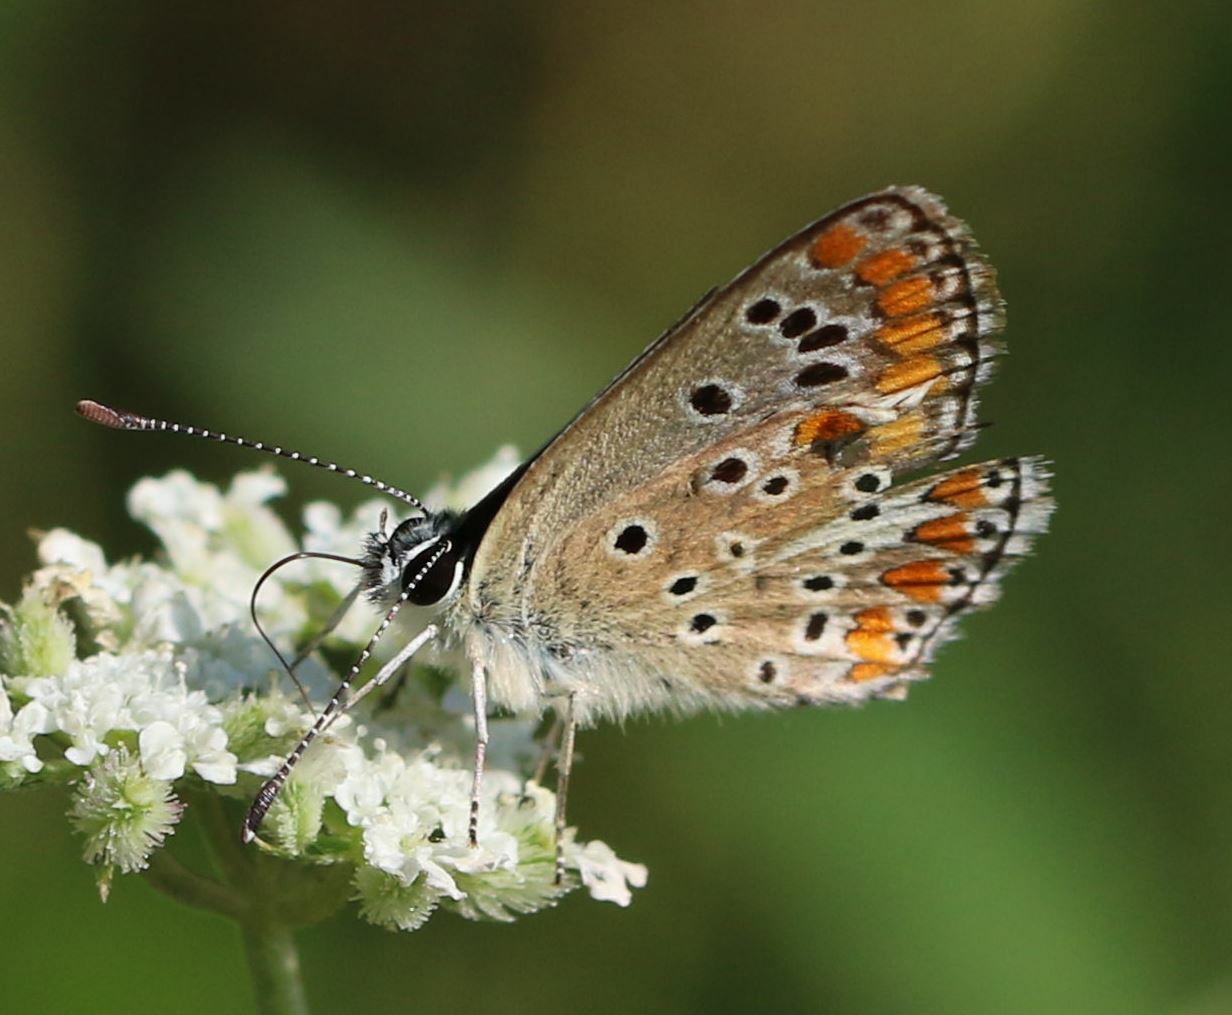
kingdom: Animalia
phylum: Arthropoda
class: Insecta
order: Lepidoptera
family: Lycaenidae
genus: Aricia
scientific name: Aricia agestis
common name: Brown argus
